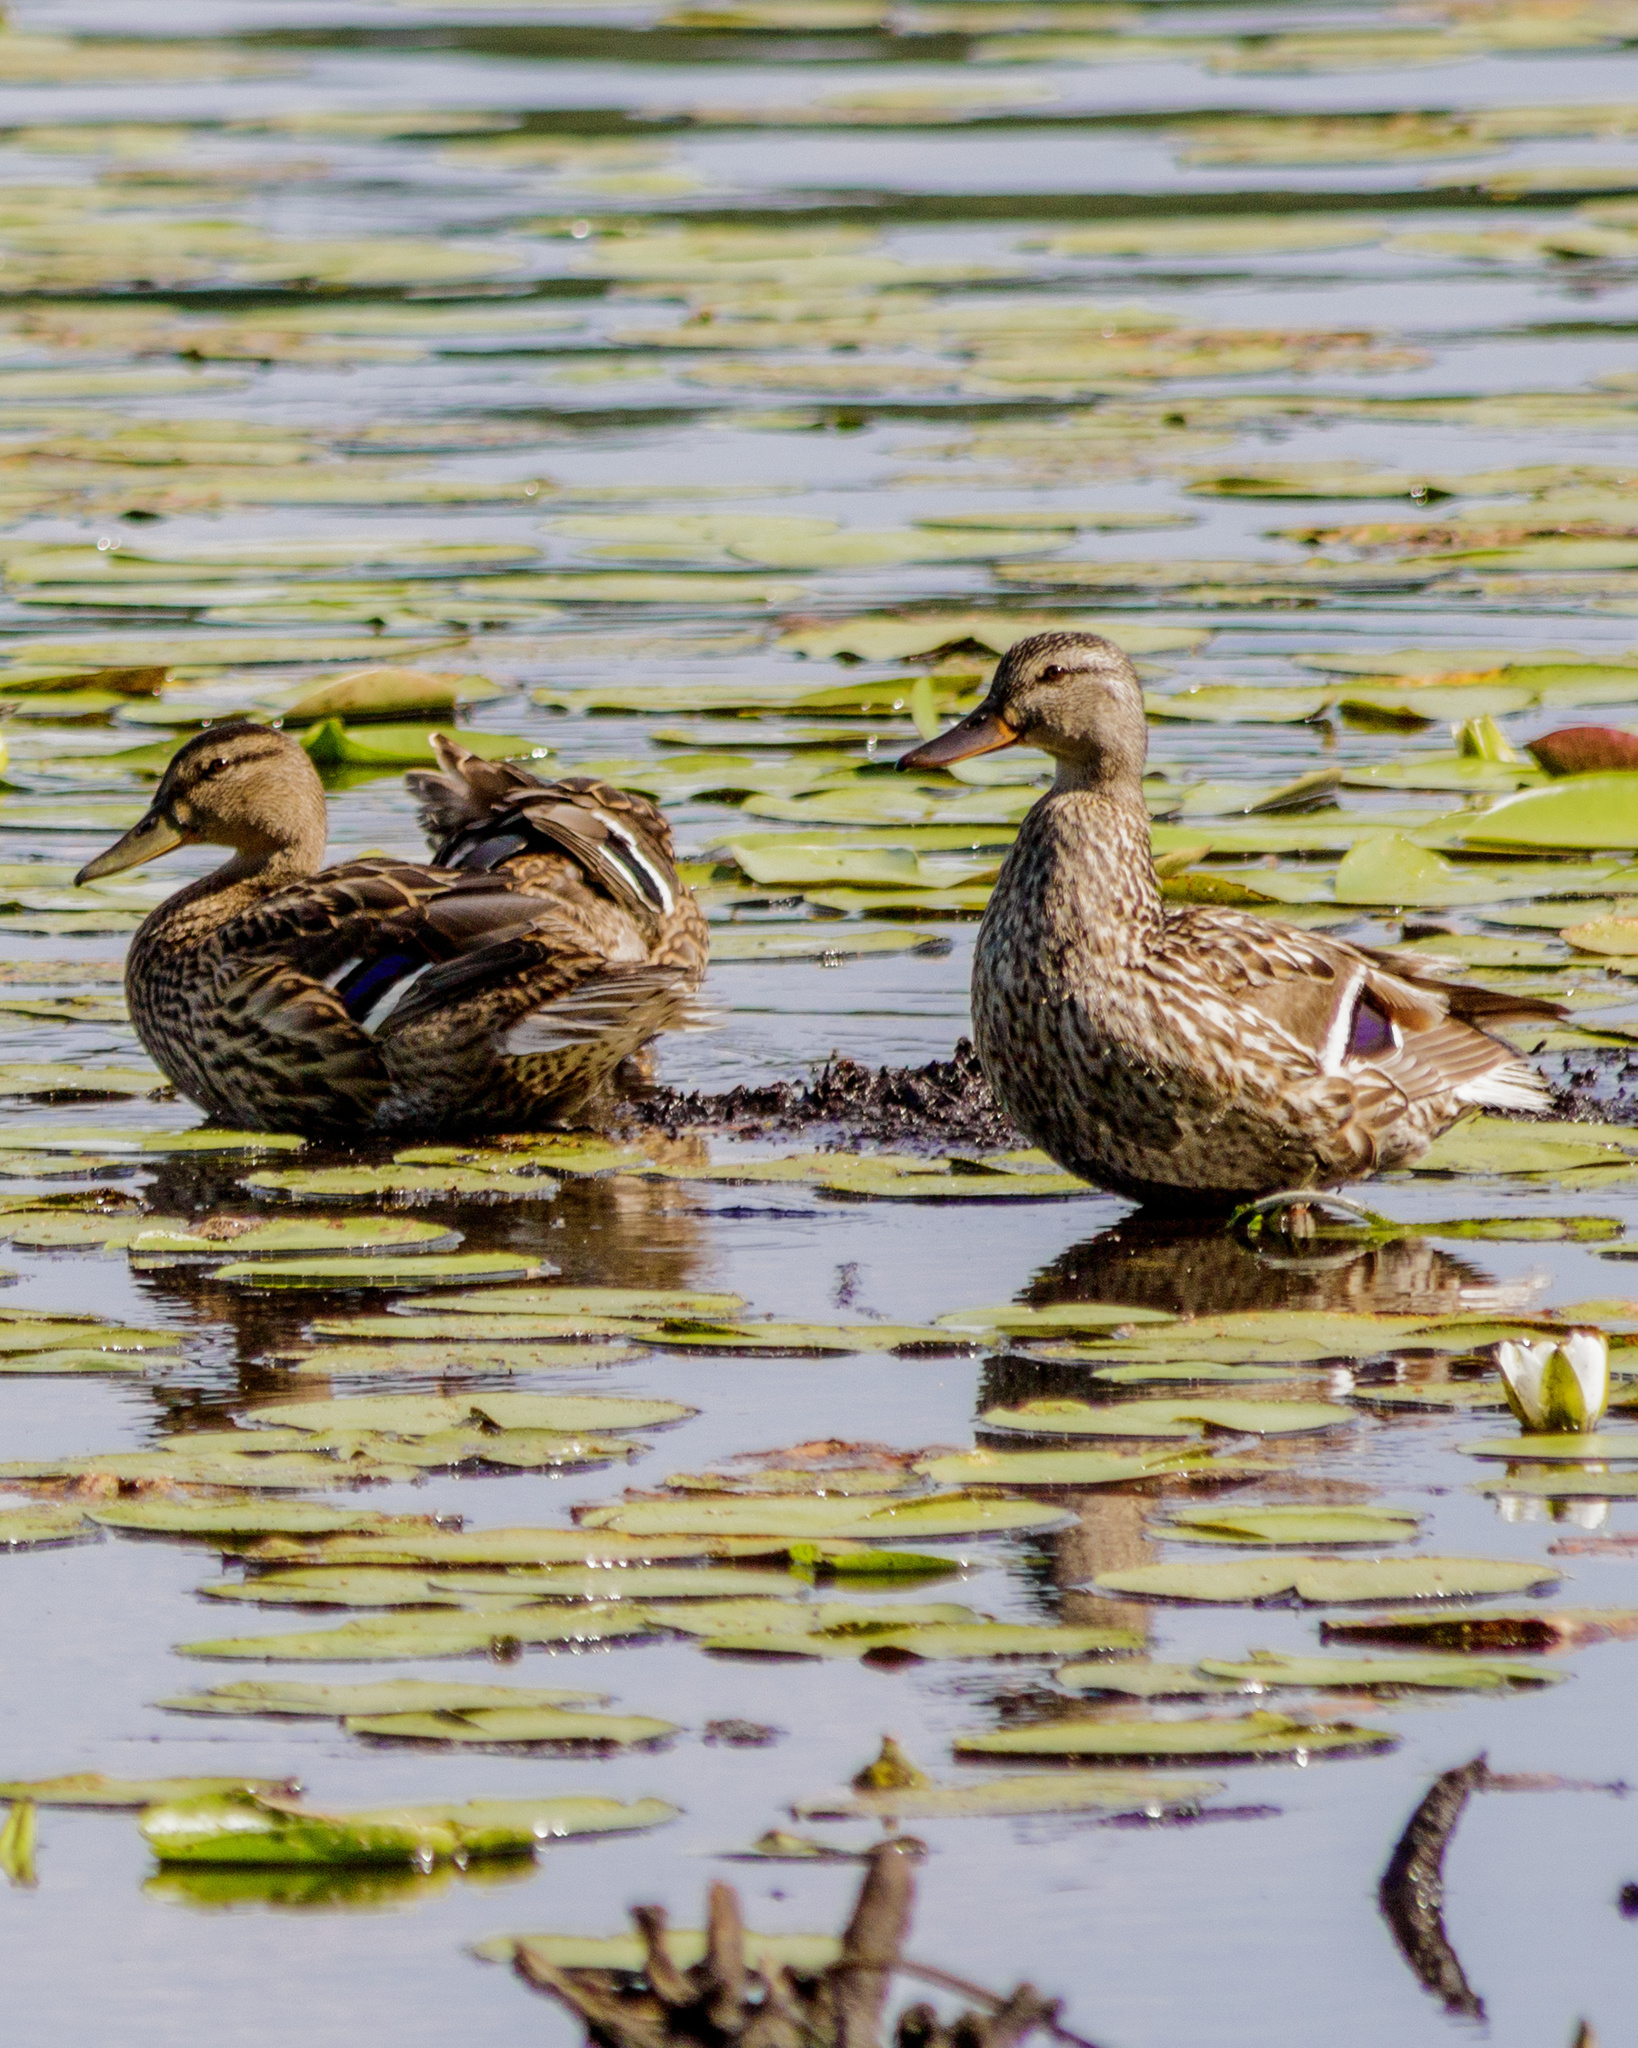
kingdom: Animalia
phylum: Chordata
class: Aves
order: Anseriformes
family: Anatidae
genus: Anas
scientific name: Anas platyrhynchos
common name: Mallard
